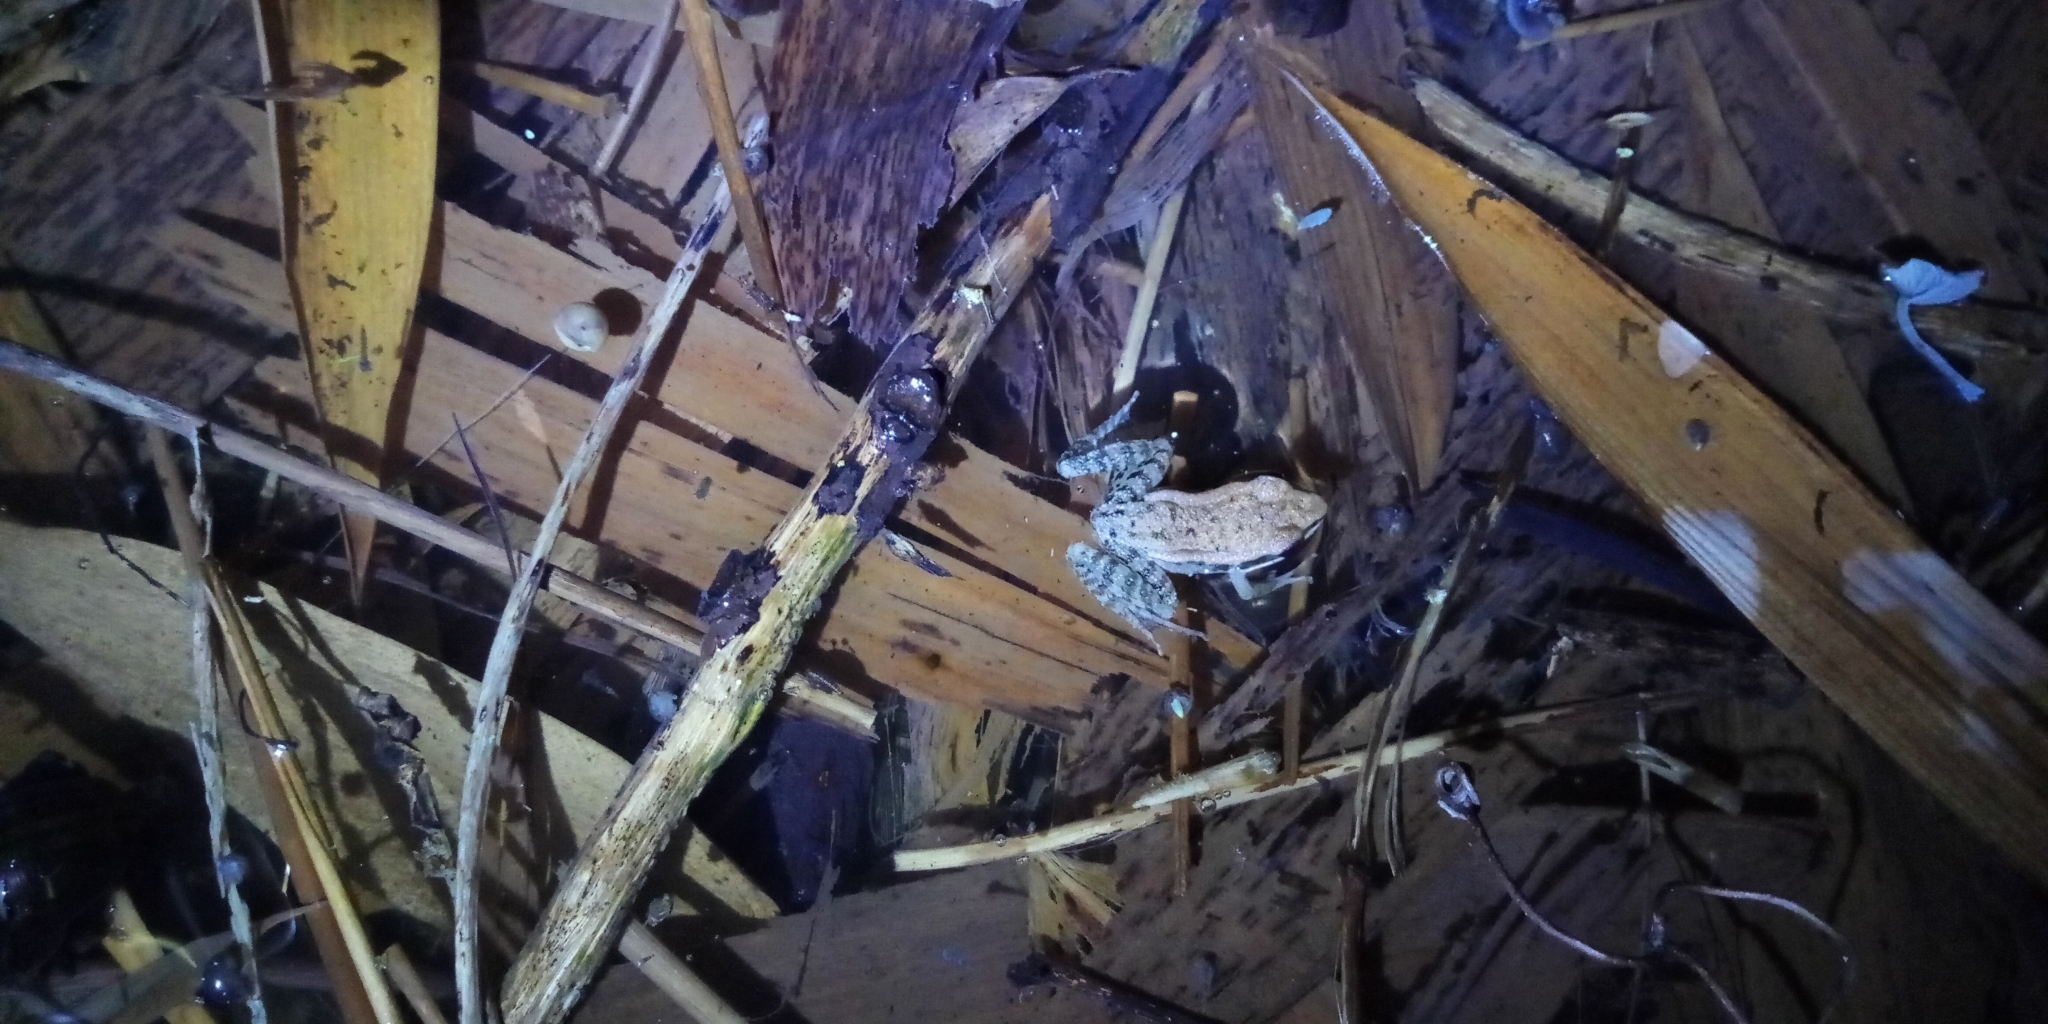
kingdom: Animalia
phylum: Chordata
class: Amphibia
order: Anura
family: Ranidae
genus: Hylarana
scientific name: Hylarana latouchii
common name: Broad-folded frog
